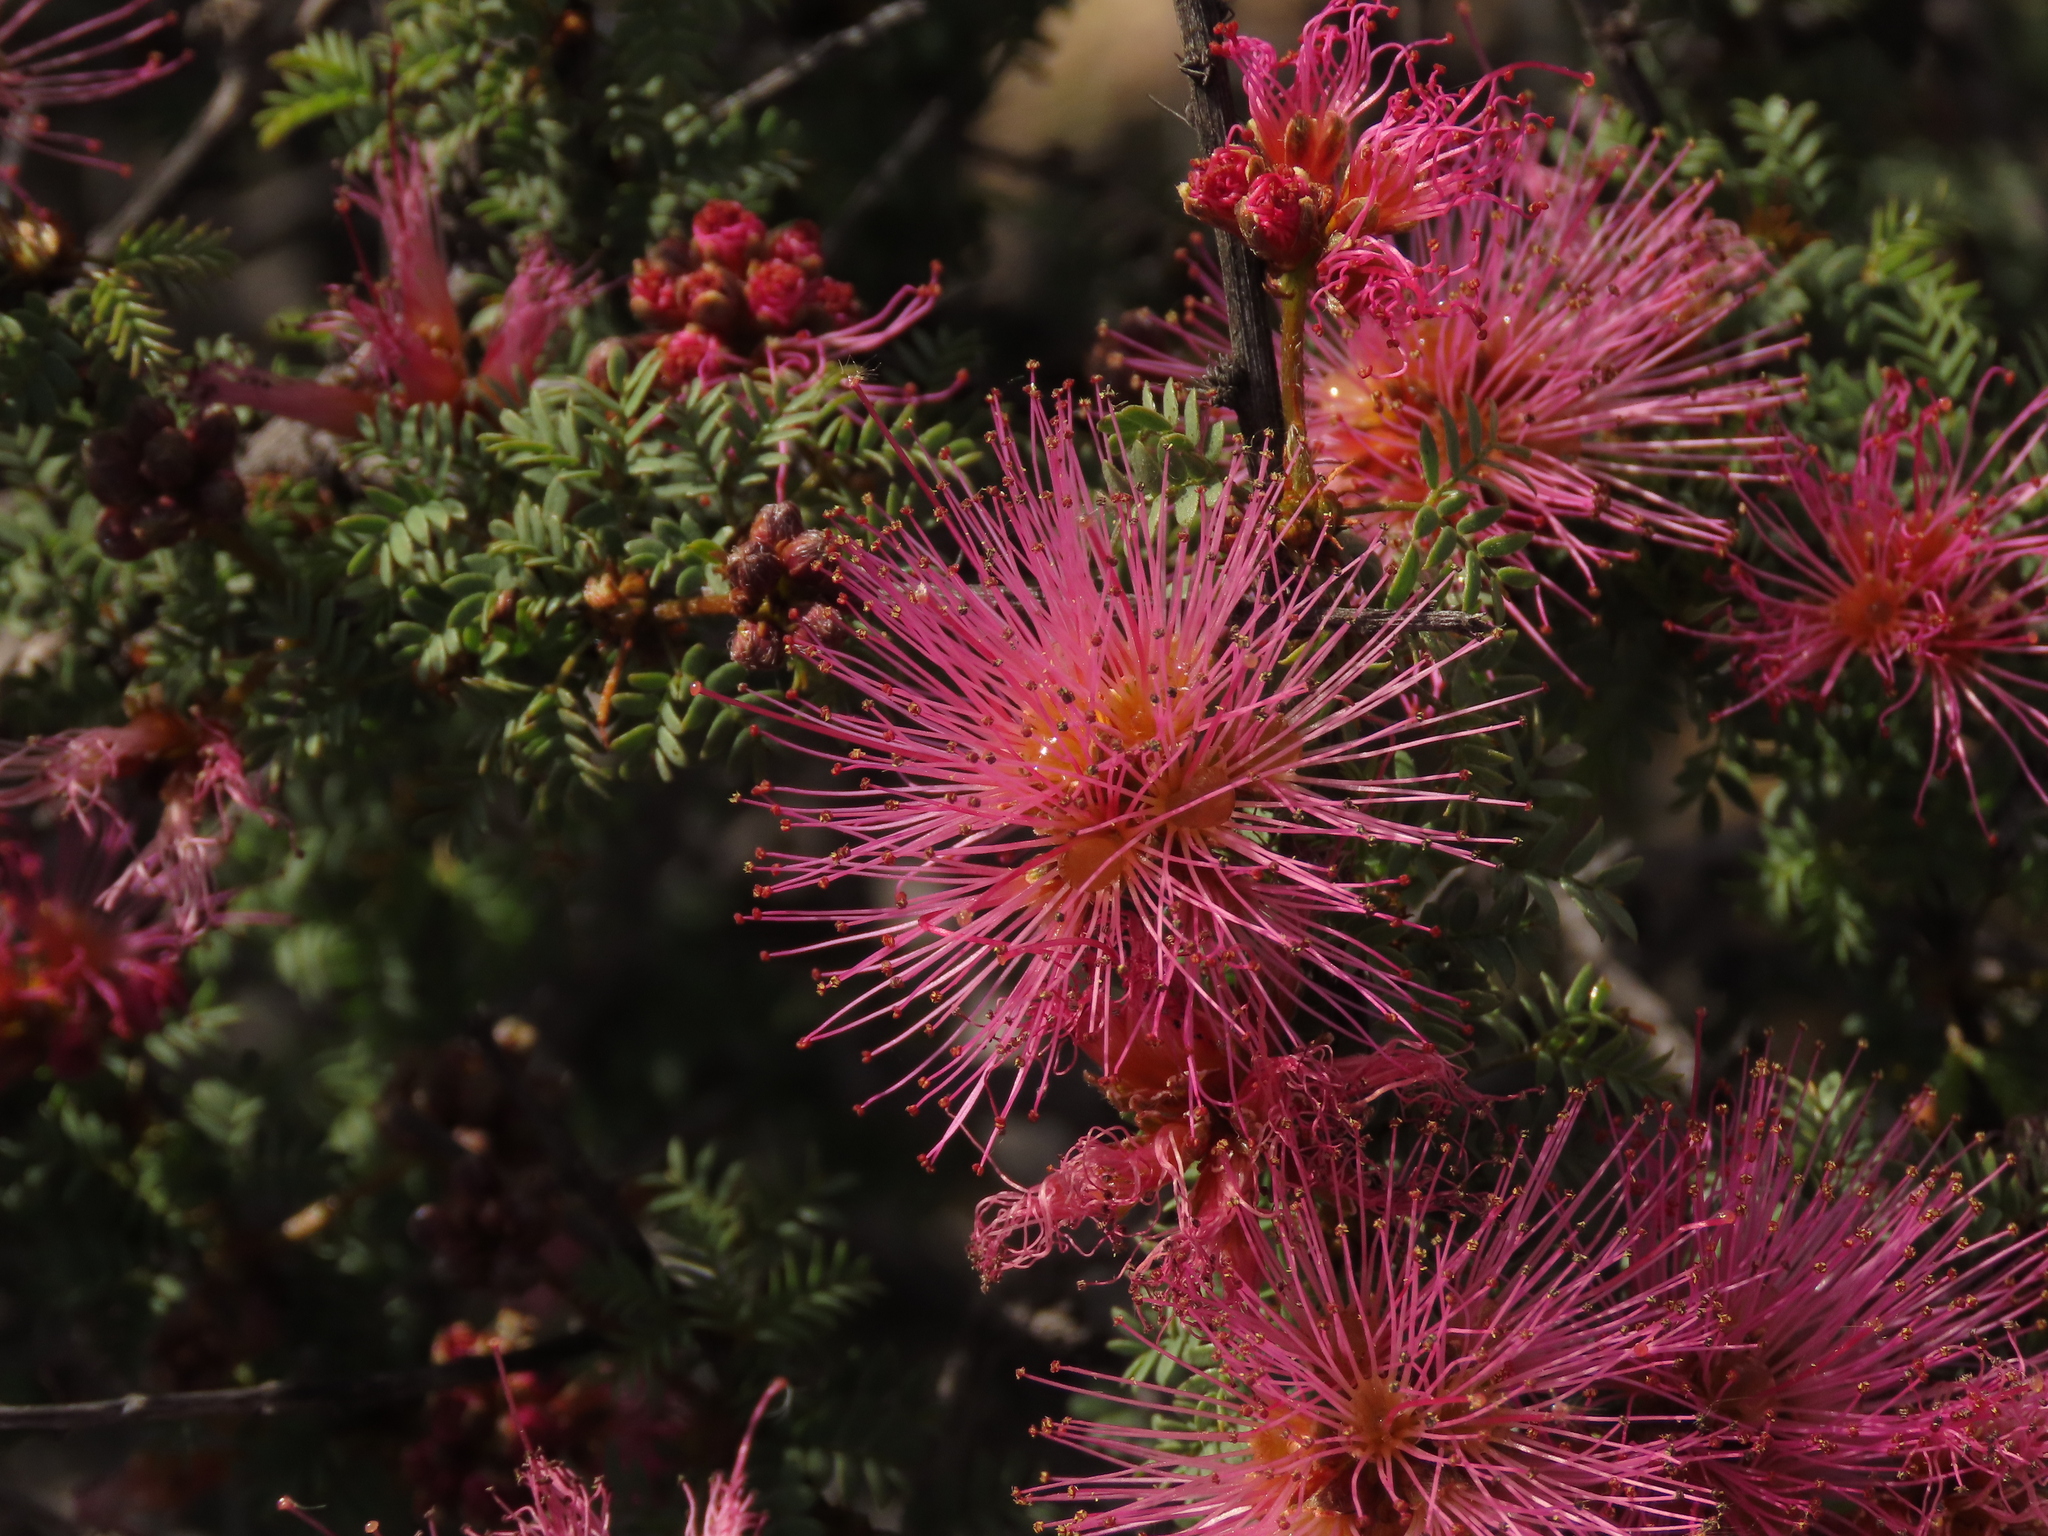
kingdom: Plantae
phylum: Tracheophyta
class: Magnoliopsida
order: Fabales
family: Fabaceae
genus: Calliandra
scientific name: Calliandra chilensis
